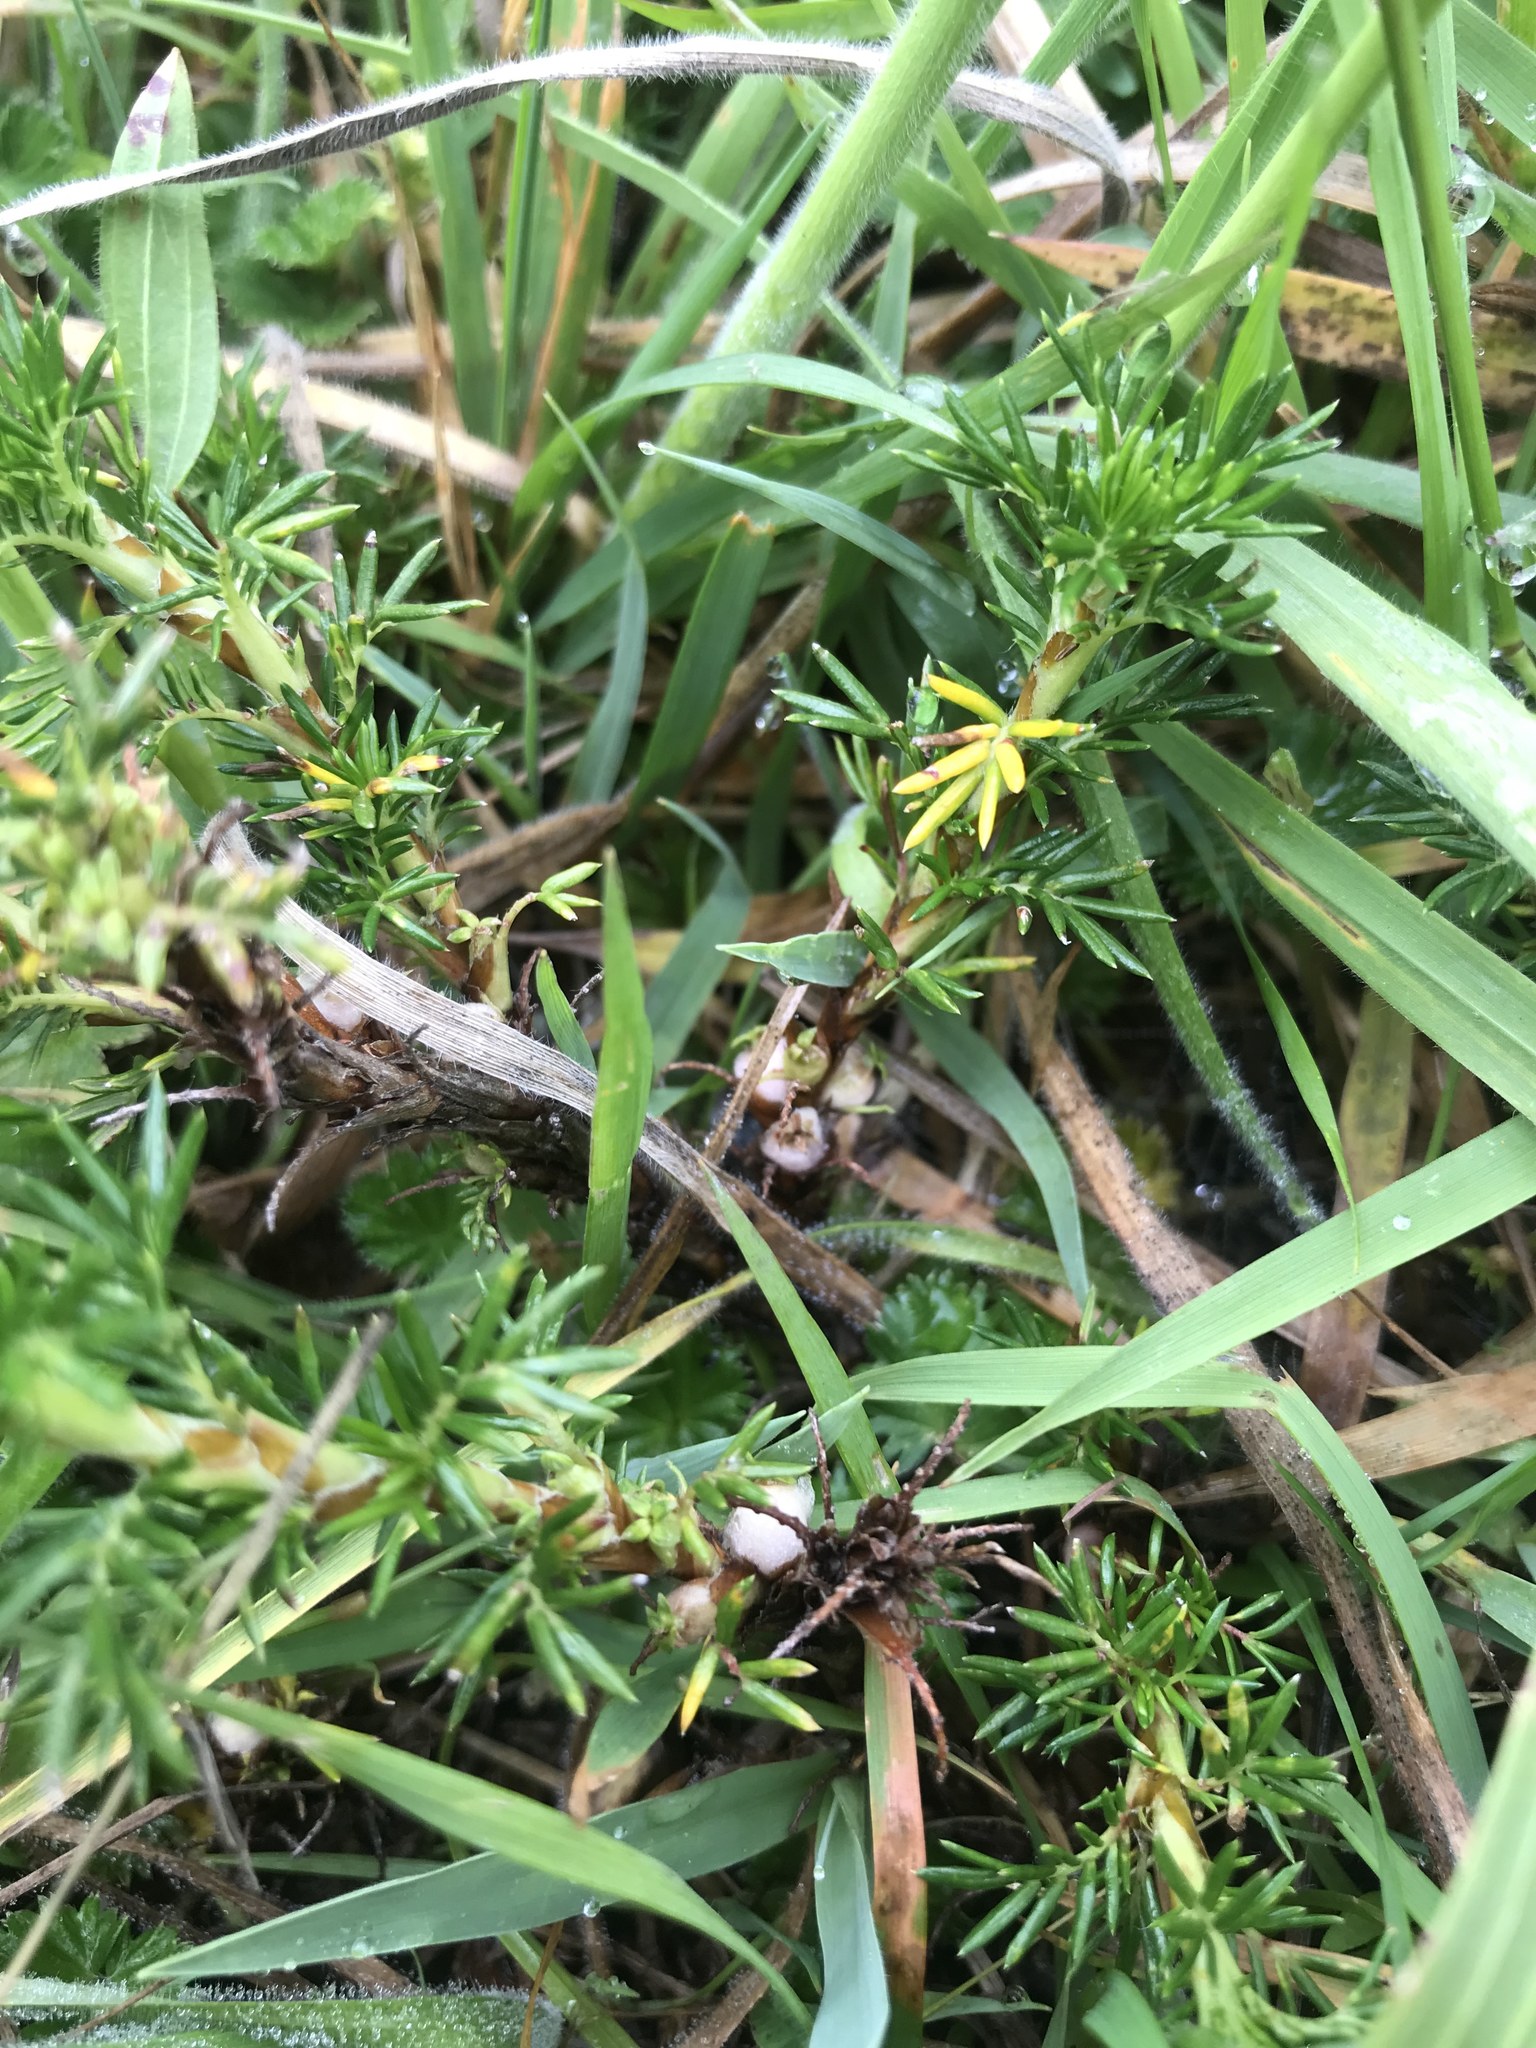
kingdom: Plantae
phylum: Tracheophyta
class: Magnoliopsida
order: Rosales
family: Rosaceae
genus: Margyricarpus
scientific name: Margyricarpus pinnatus
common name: Pearlfruit
